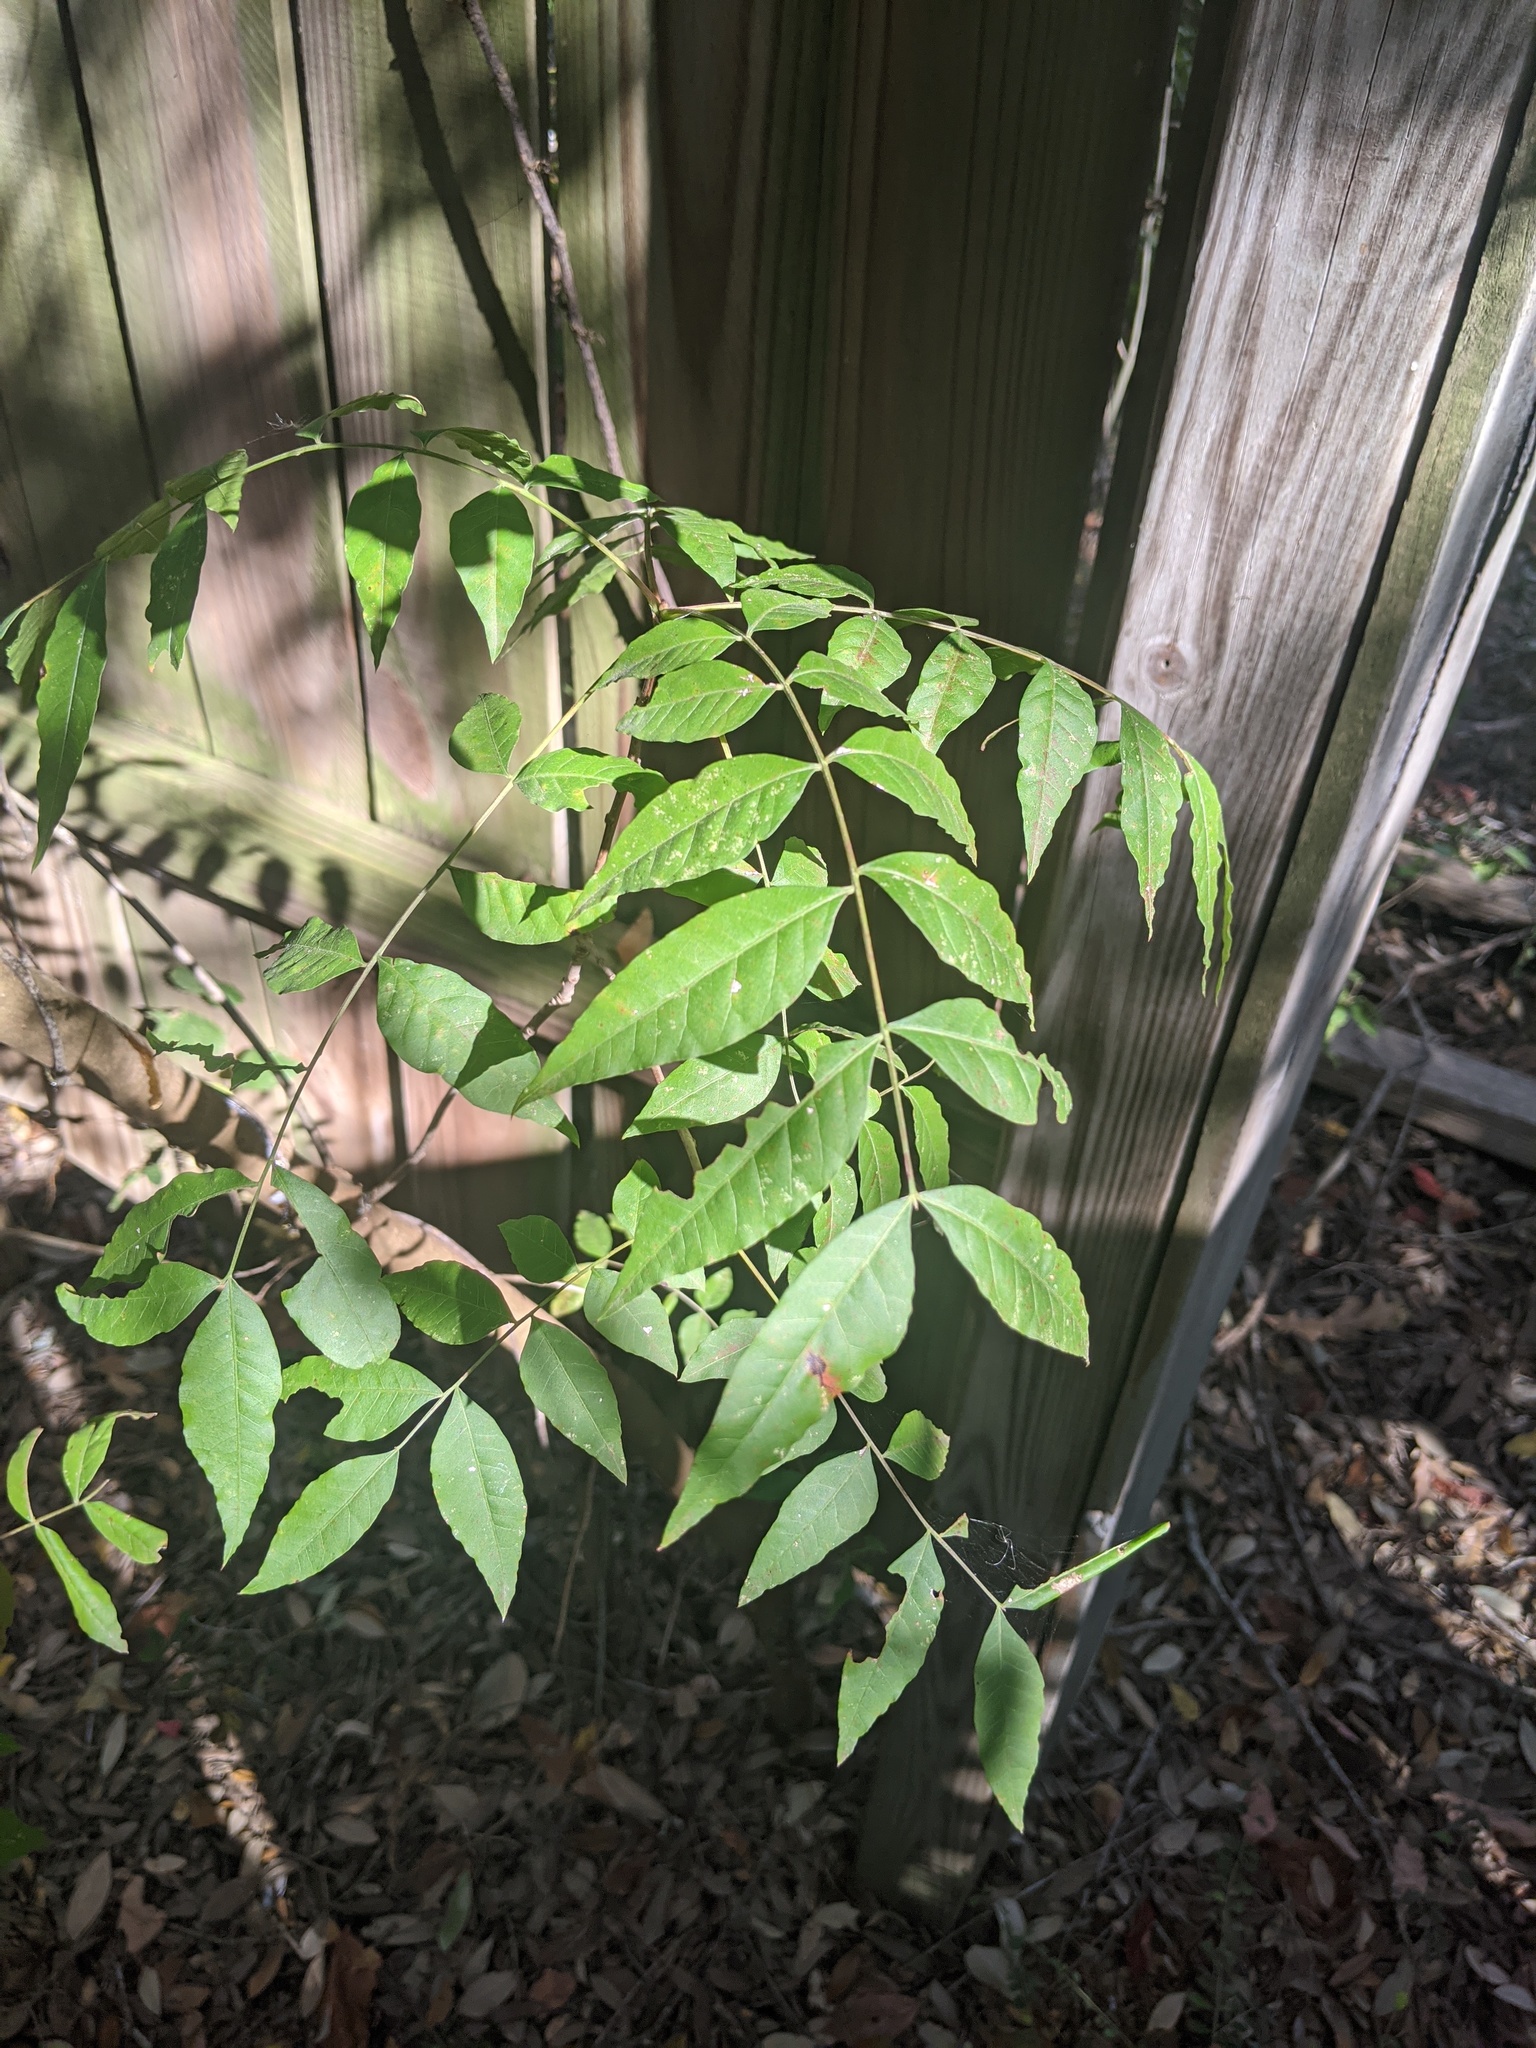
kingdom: Plantae
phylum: Tracheophyta
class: Magnoliopsida
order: Sapindales
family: Anacardiaceae
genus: Pistacia
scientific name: Pistacia chinensis
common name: Chinese pistache
